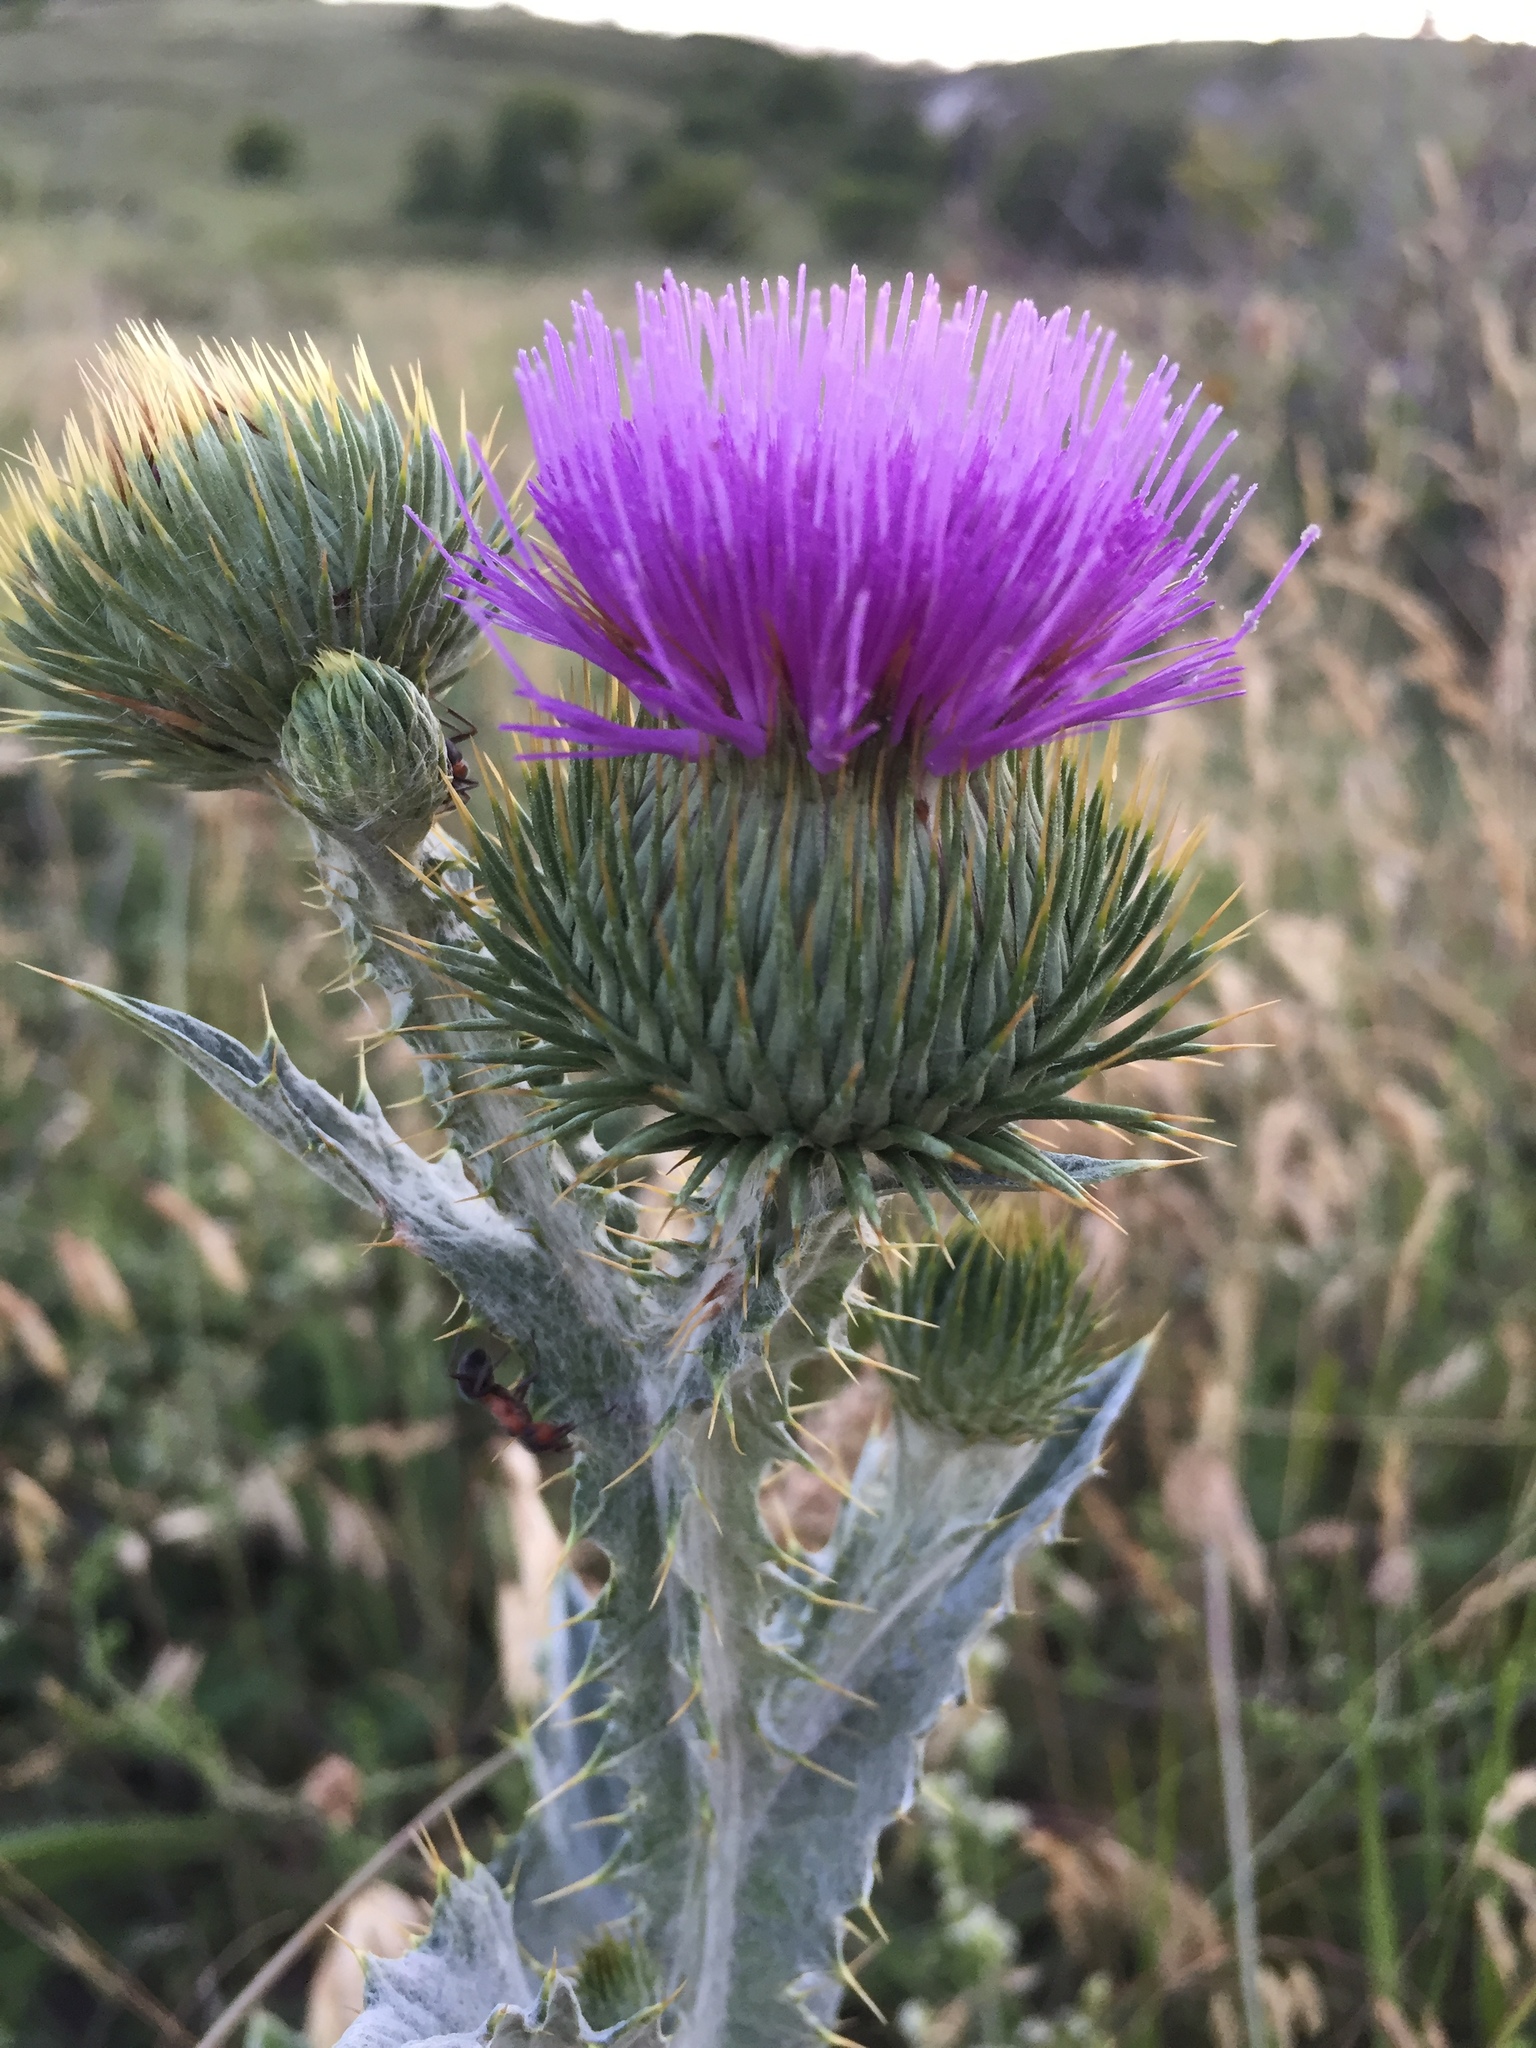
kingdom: Plantae
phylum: Tracheophyta
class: Magnoliopsida
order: Asterales
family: Asteraceae
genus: Onopordum
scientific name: Onopordum acanthium
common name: Scotch thistle
